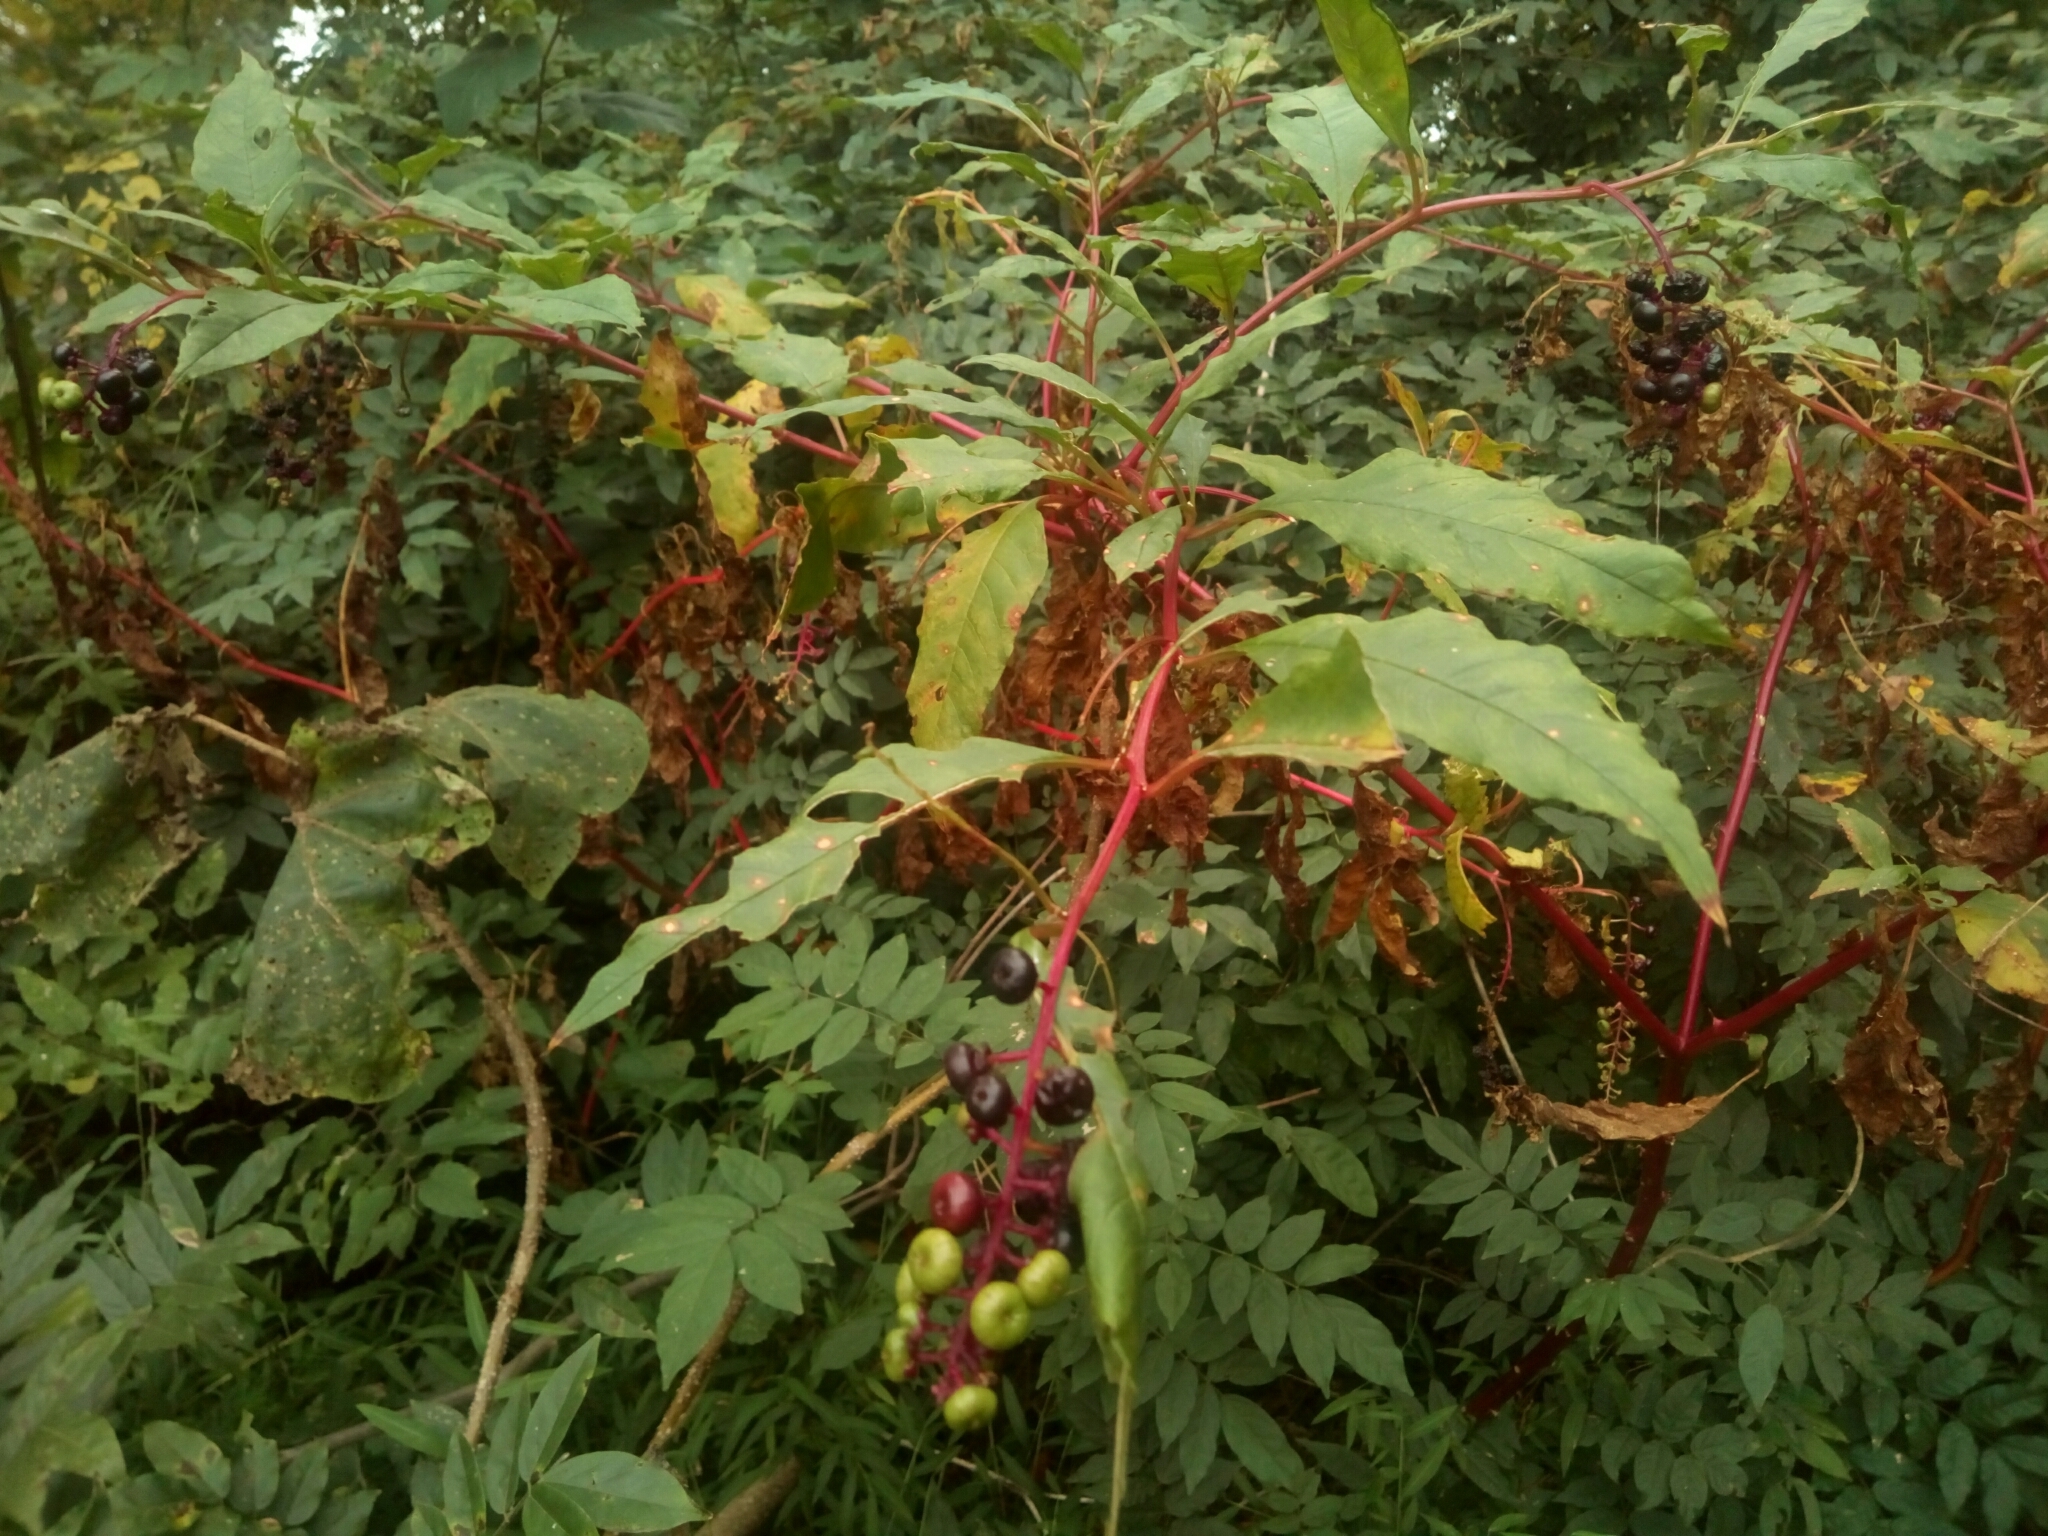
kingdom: Plantae
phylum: Tracheophyta
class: Magnoliopsida
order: Caryophyllales
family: Phytolaccaceae
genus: Phytolacca
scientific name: Phytolacca americana
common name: American pokeweed
